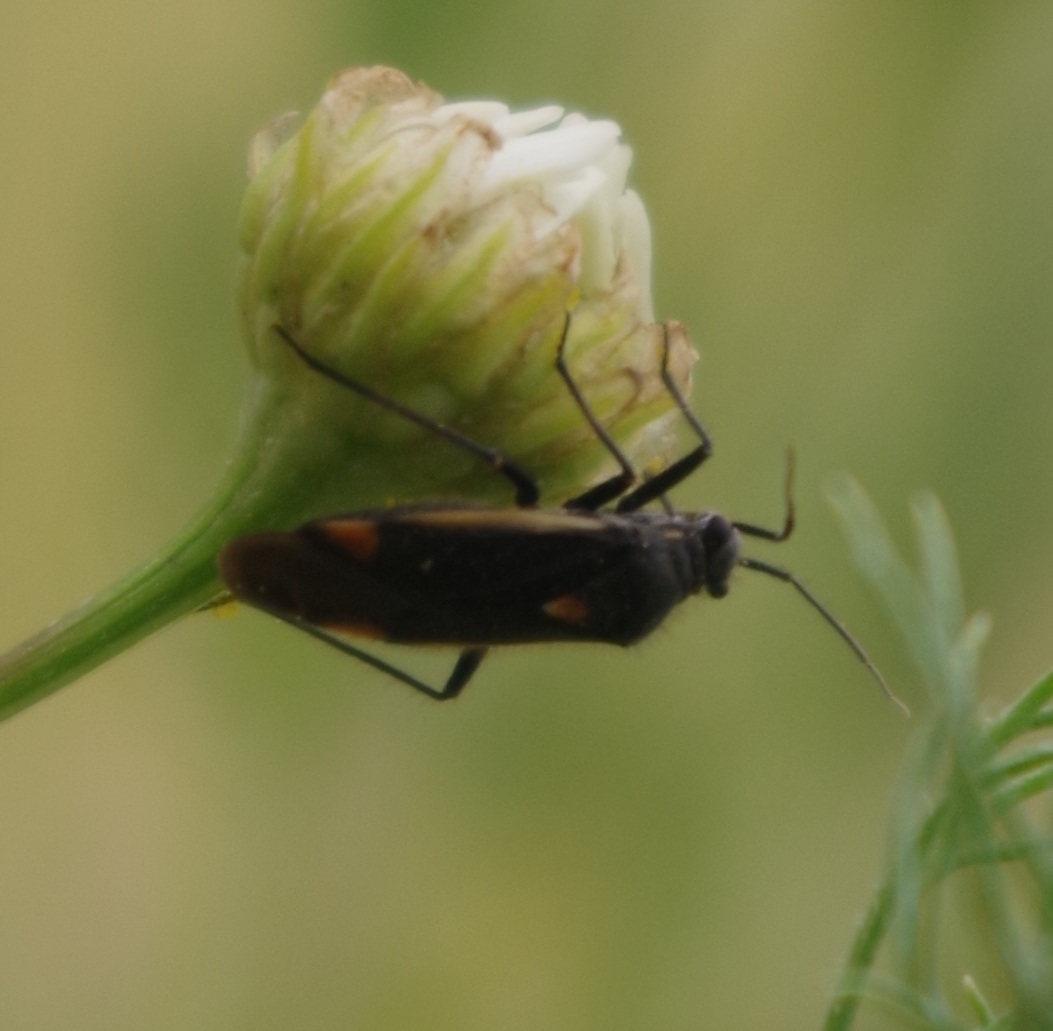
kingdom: Animalia
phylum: Arthropoda
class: Insecta
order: Hemiptera
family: Miridae
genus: Capsodes
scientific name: Capsodes gothicus
